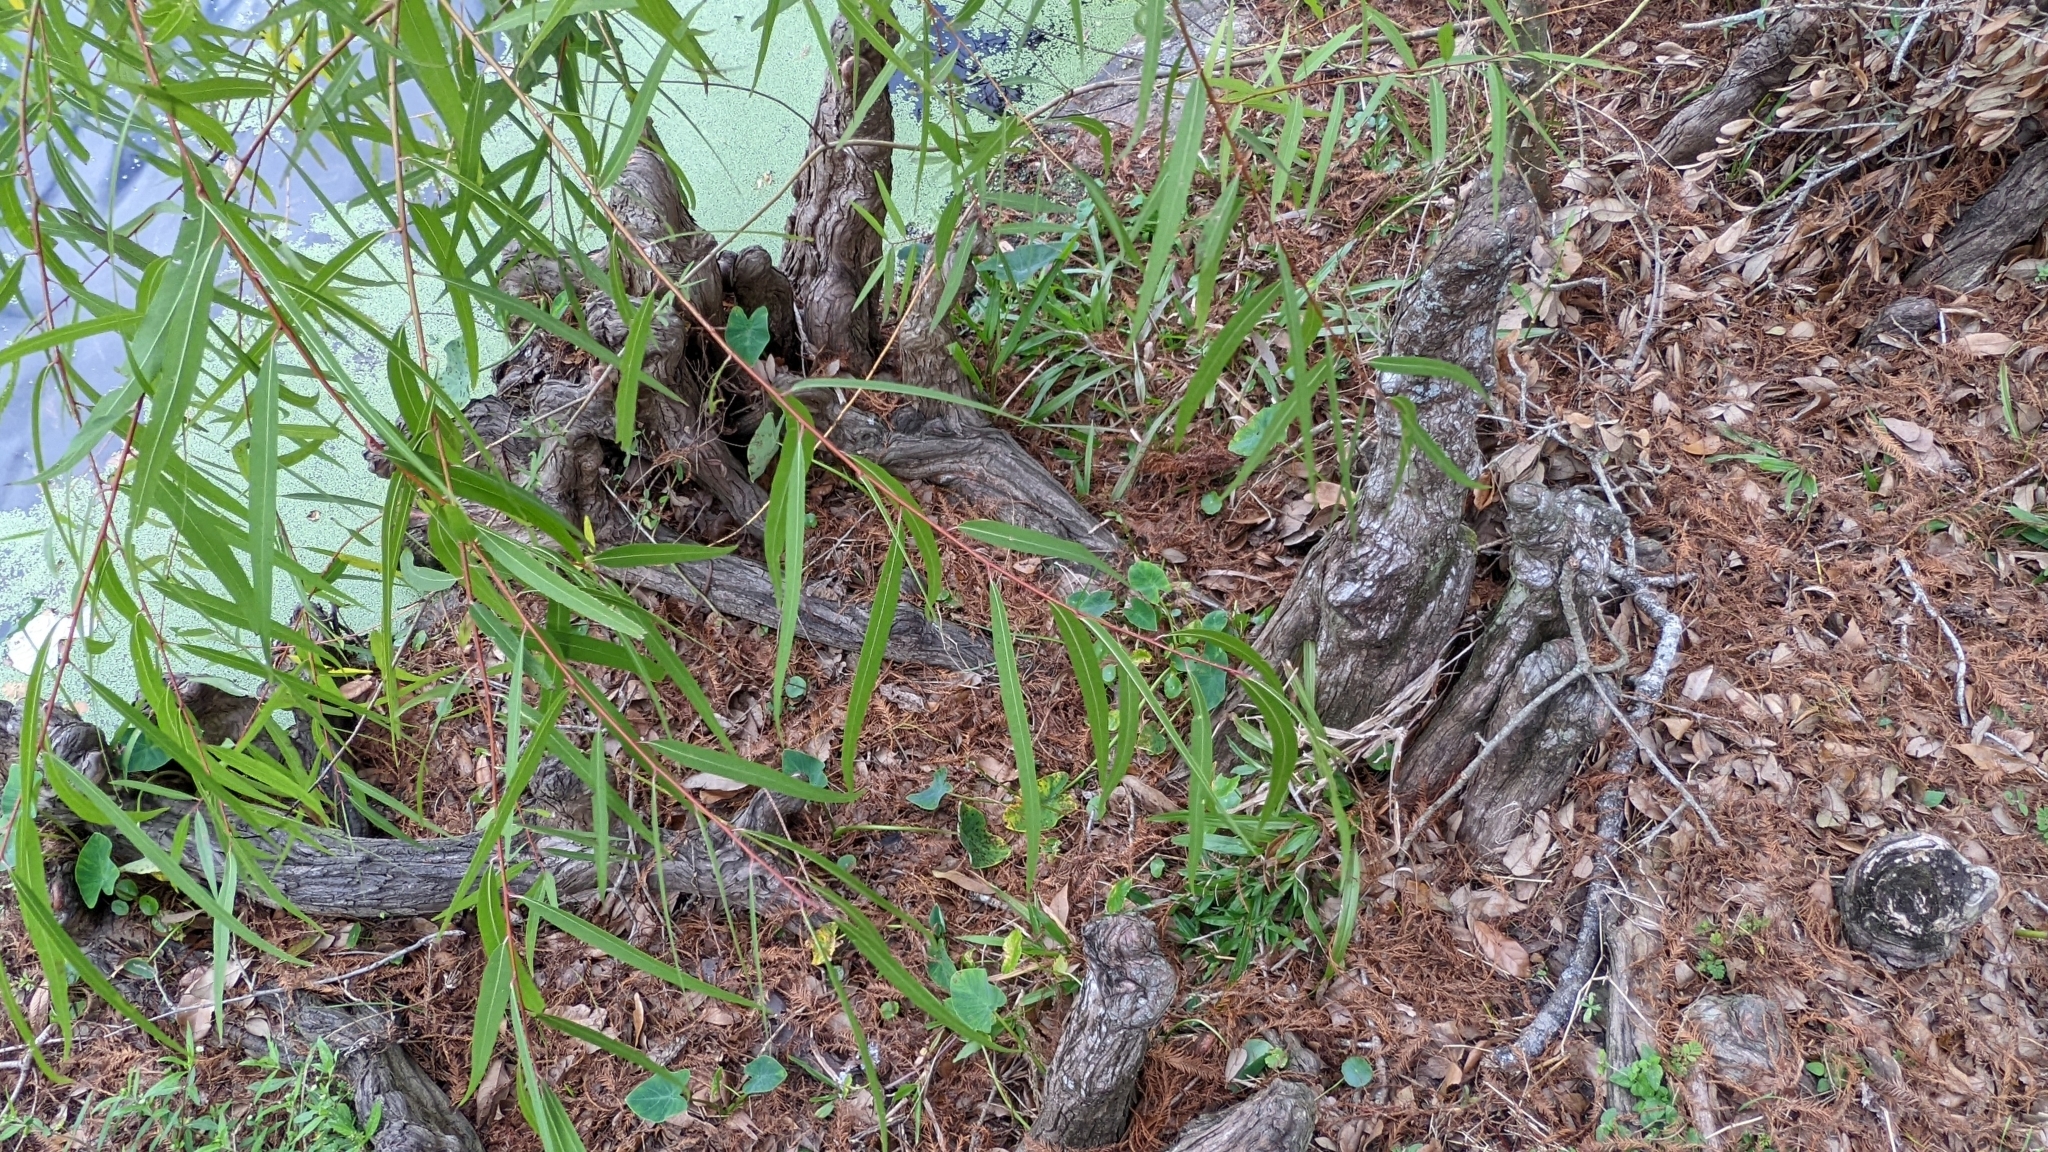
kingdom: Plantae
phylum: Tracheophyta
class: Magnoliopsida
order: Malpighiales
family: Salicaceae
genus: Salix
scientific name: Salix nigra
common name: Black willow
